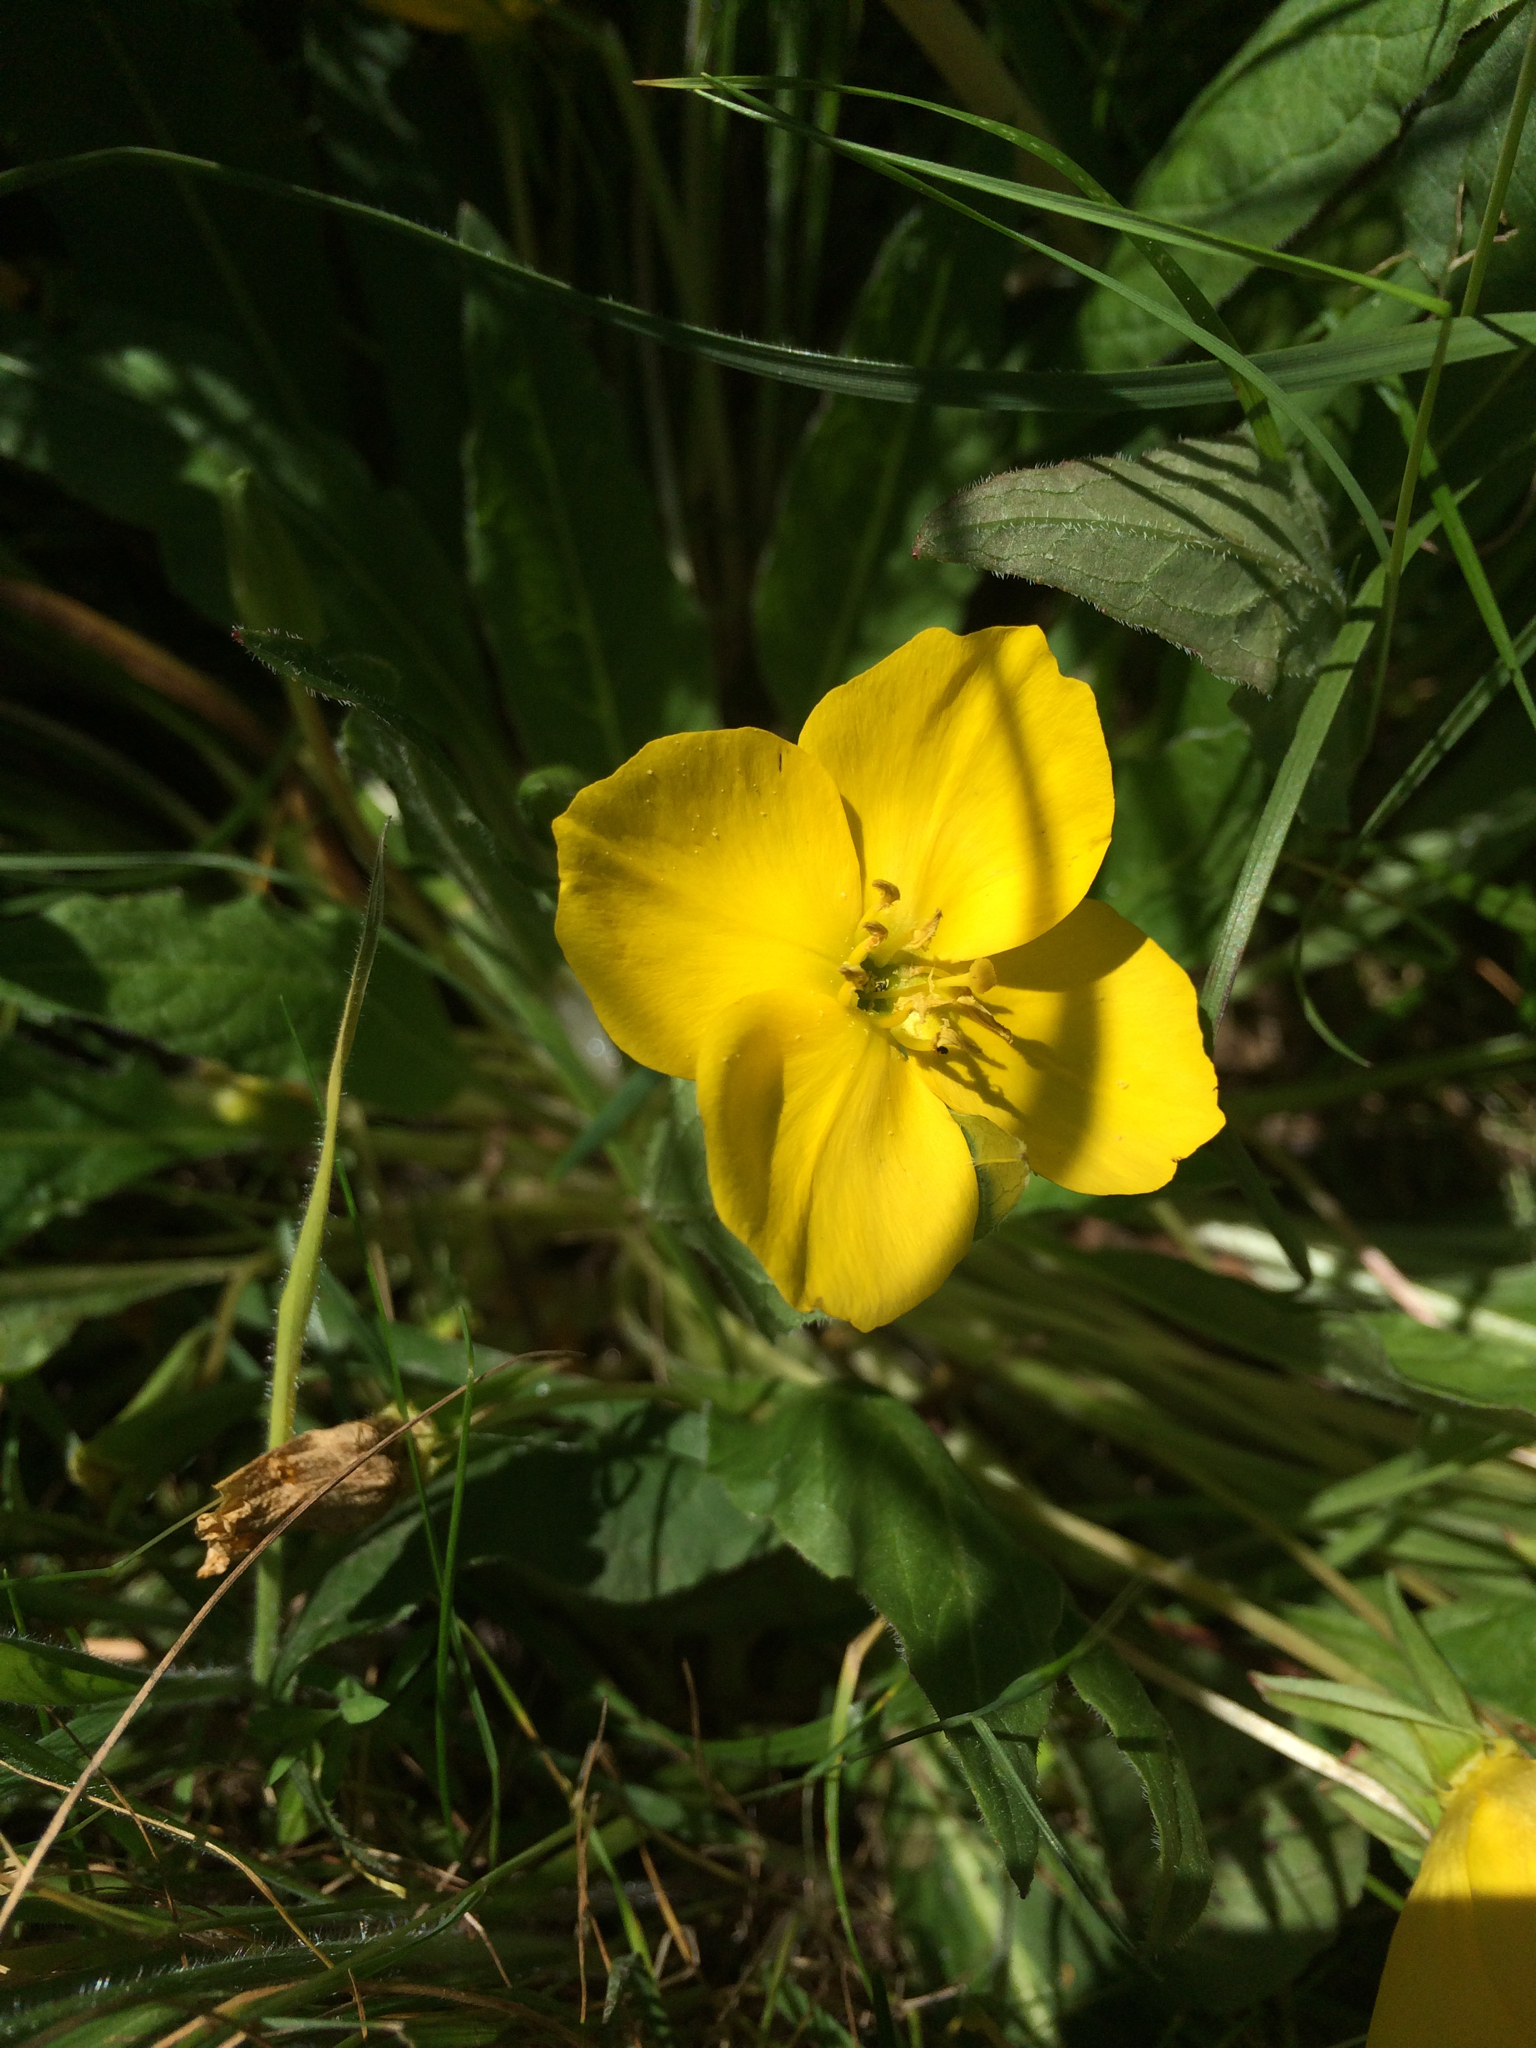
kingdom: Plantae
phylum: Tracheophyta
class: Magnoliopsida
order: Myrtales
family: Onagraceae
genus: Taraxia
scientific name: Taraxia ovata
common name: Goldeneggs
